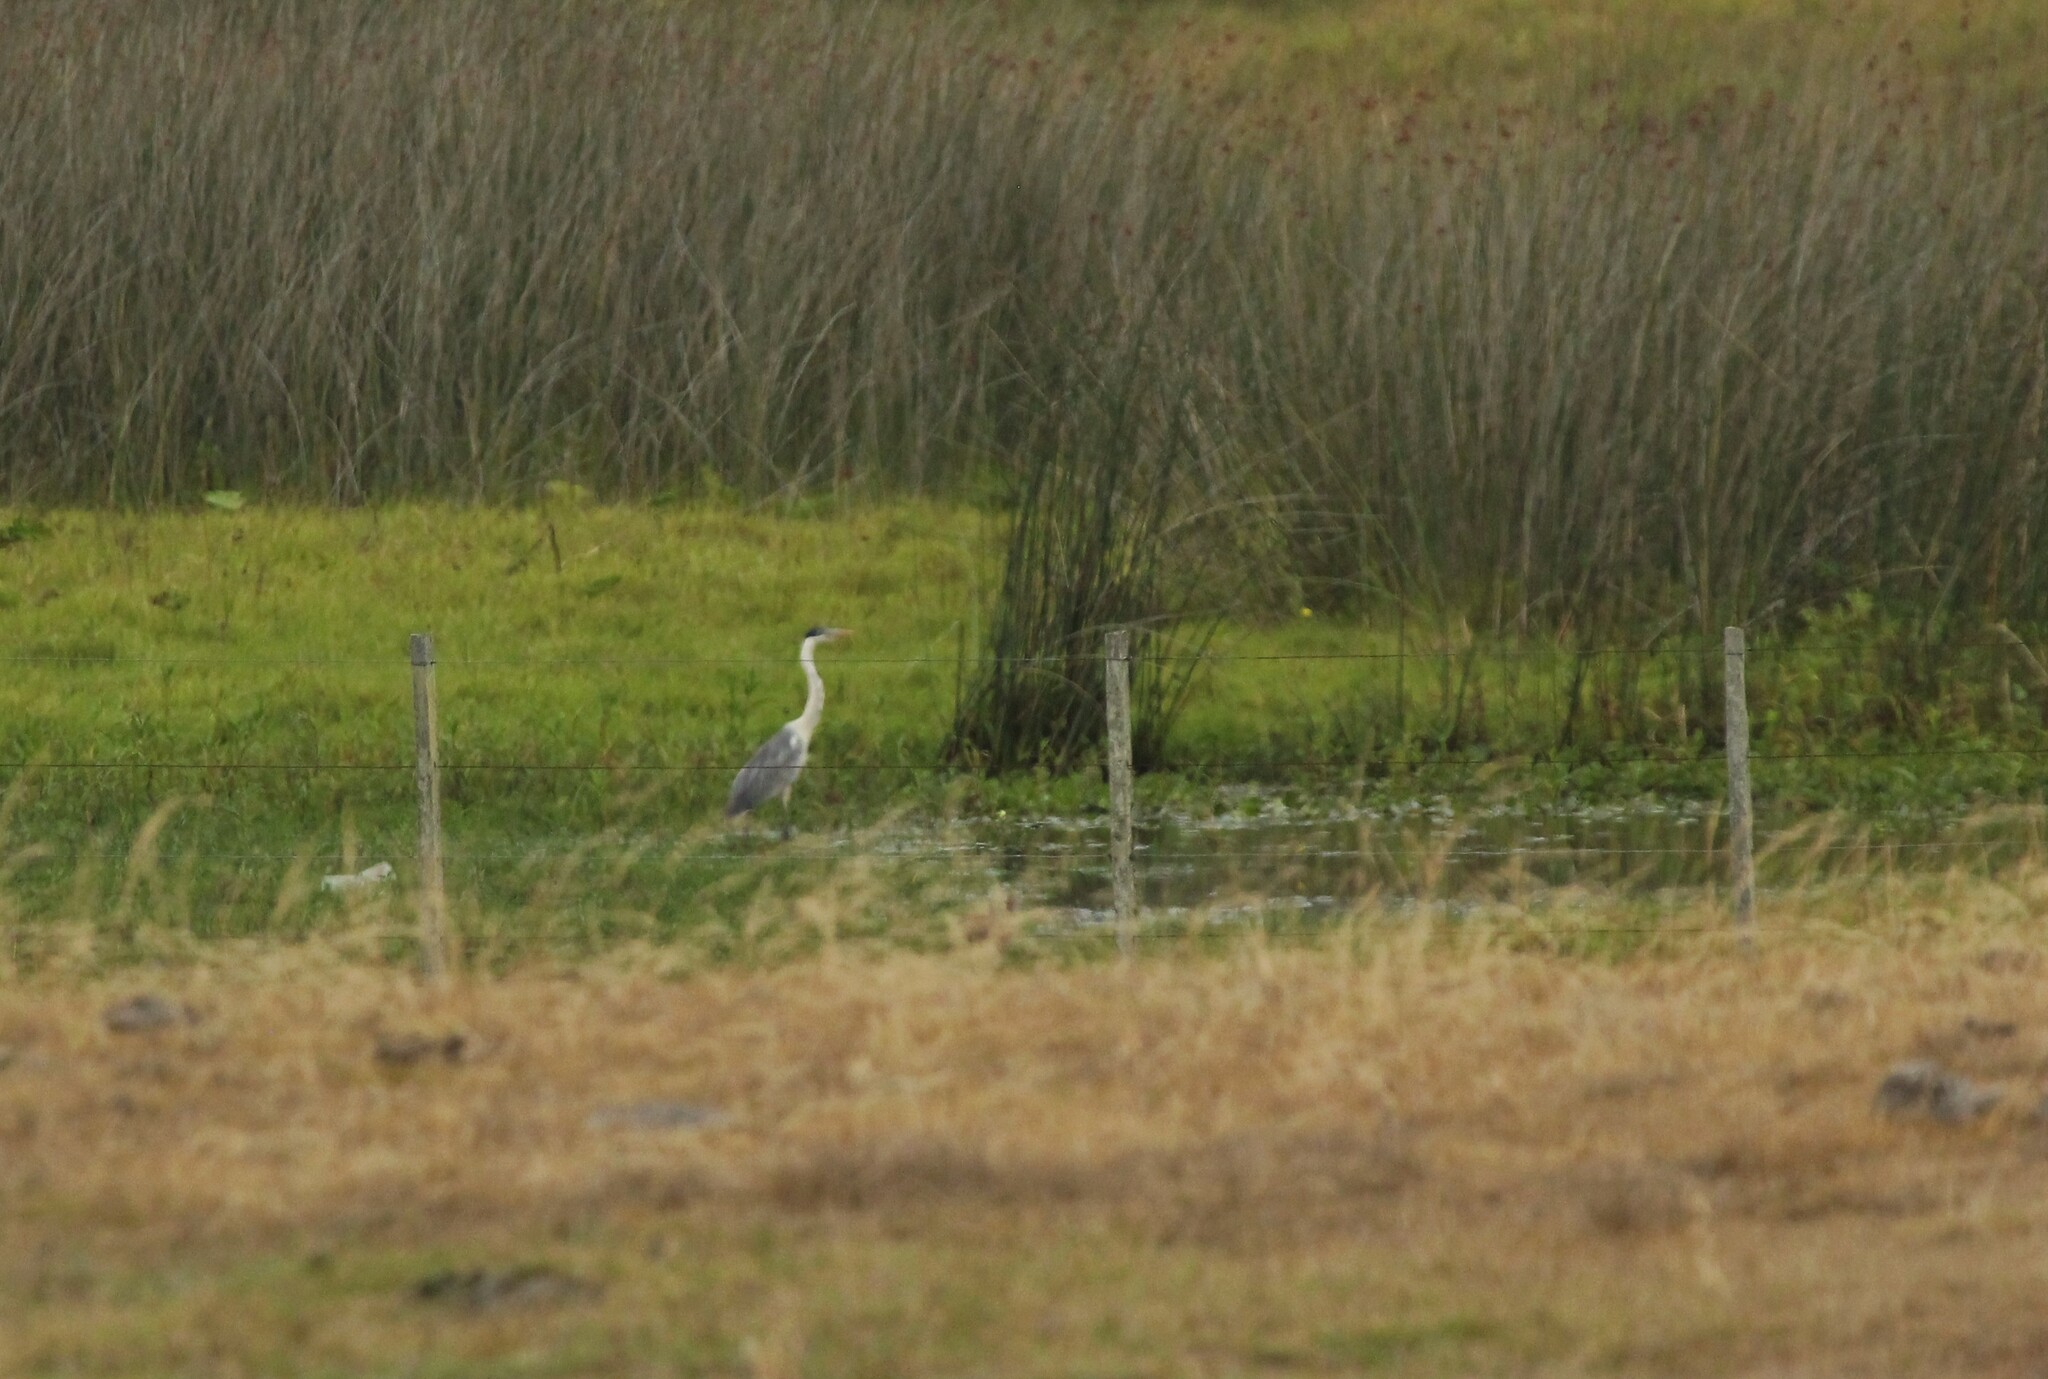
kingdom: Animalia
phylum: Chordata
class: Aves
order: Pelecaniformes
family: Ardeidae
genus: Ardea
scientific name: Ardea cocoi
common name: Cocoi heron
